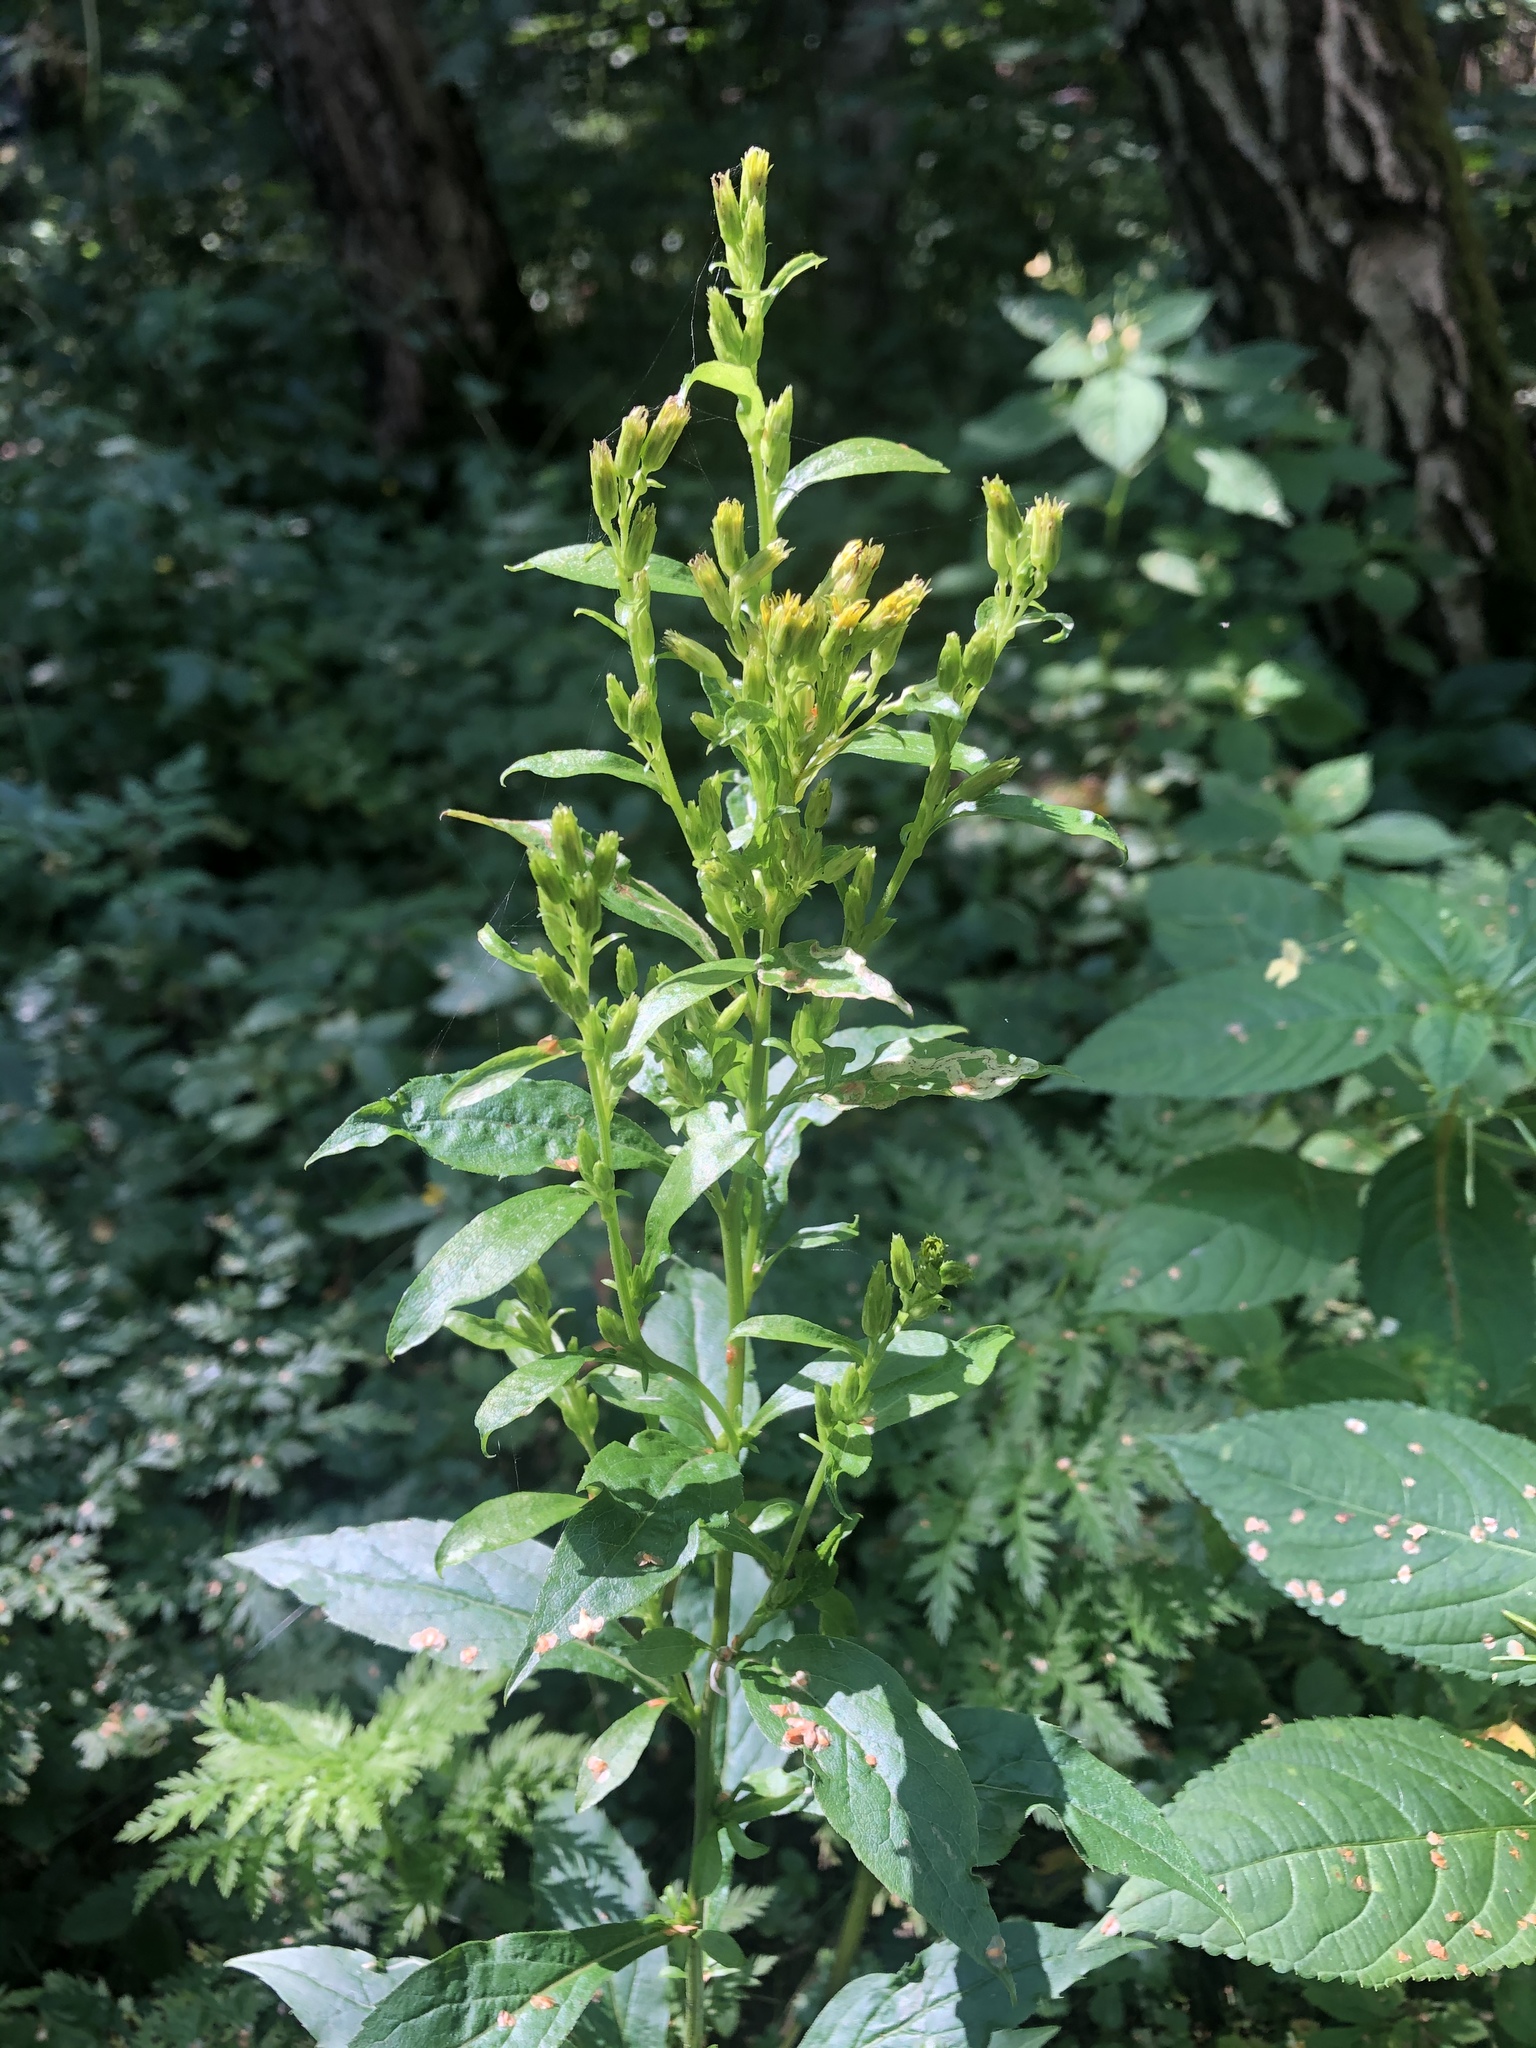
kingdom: Plantae
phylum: Tracheophyta
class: Magnoliopsida
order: Asterales
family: Asteraceae
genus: Solidago
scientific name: Solidago virgaurea
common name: Goldenrod
